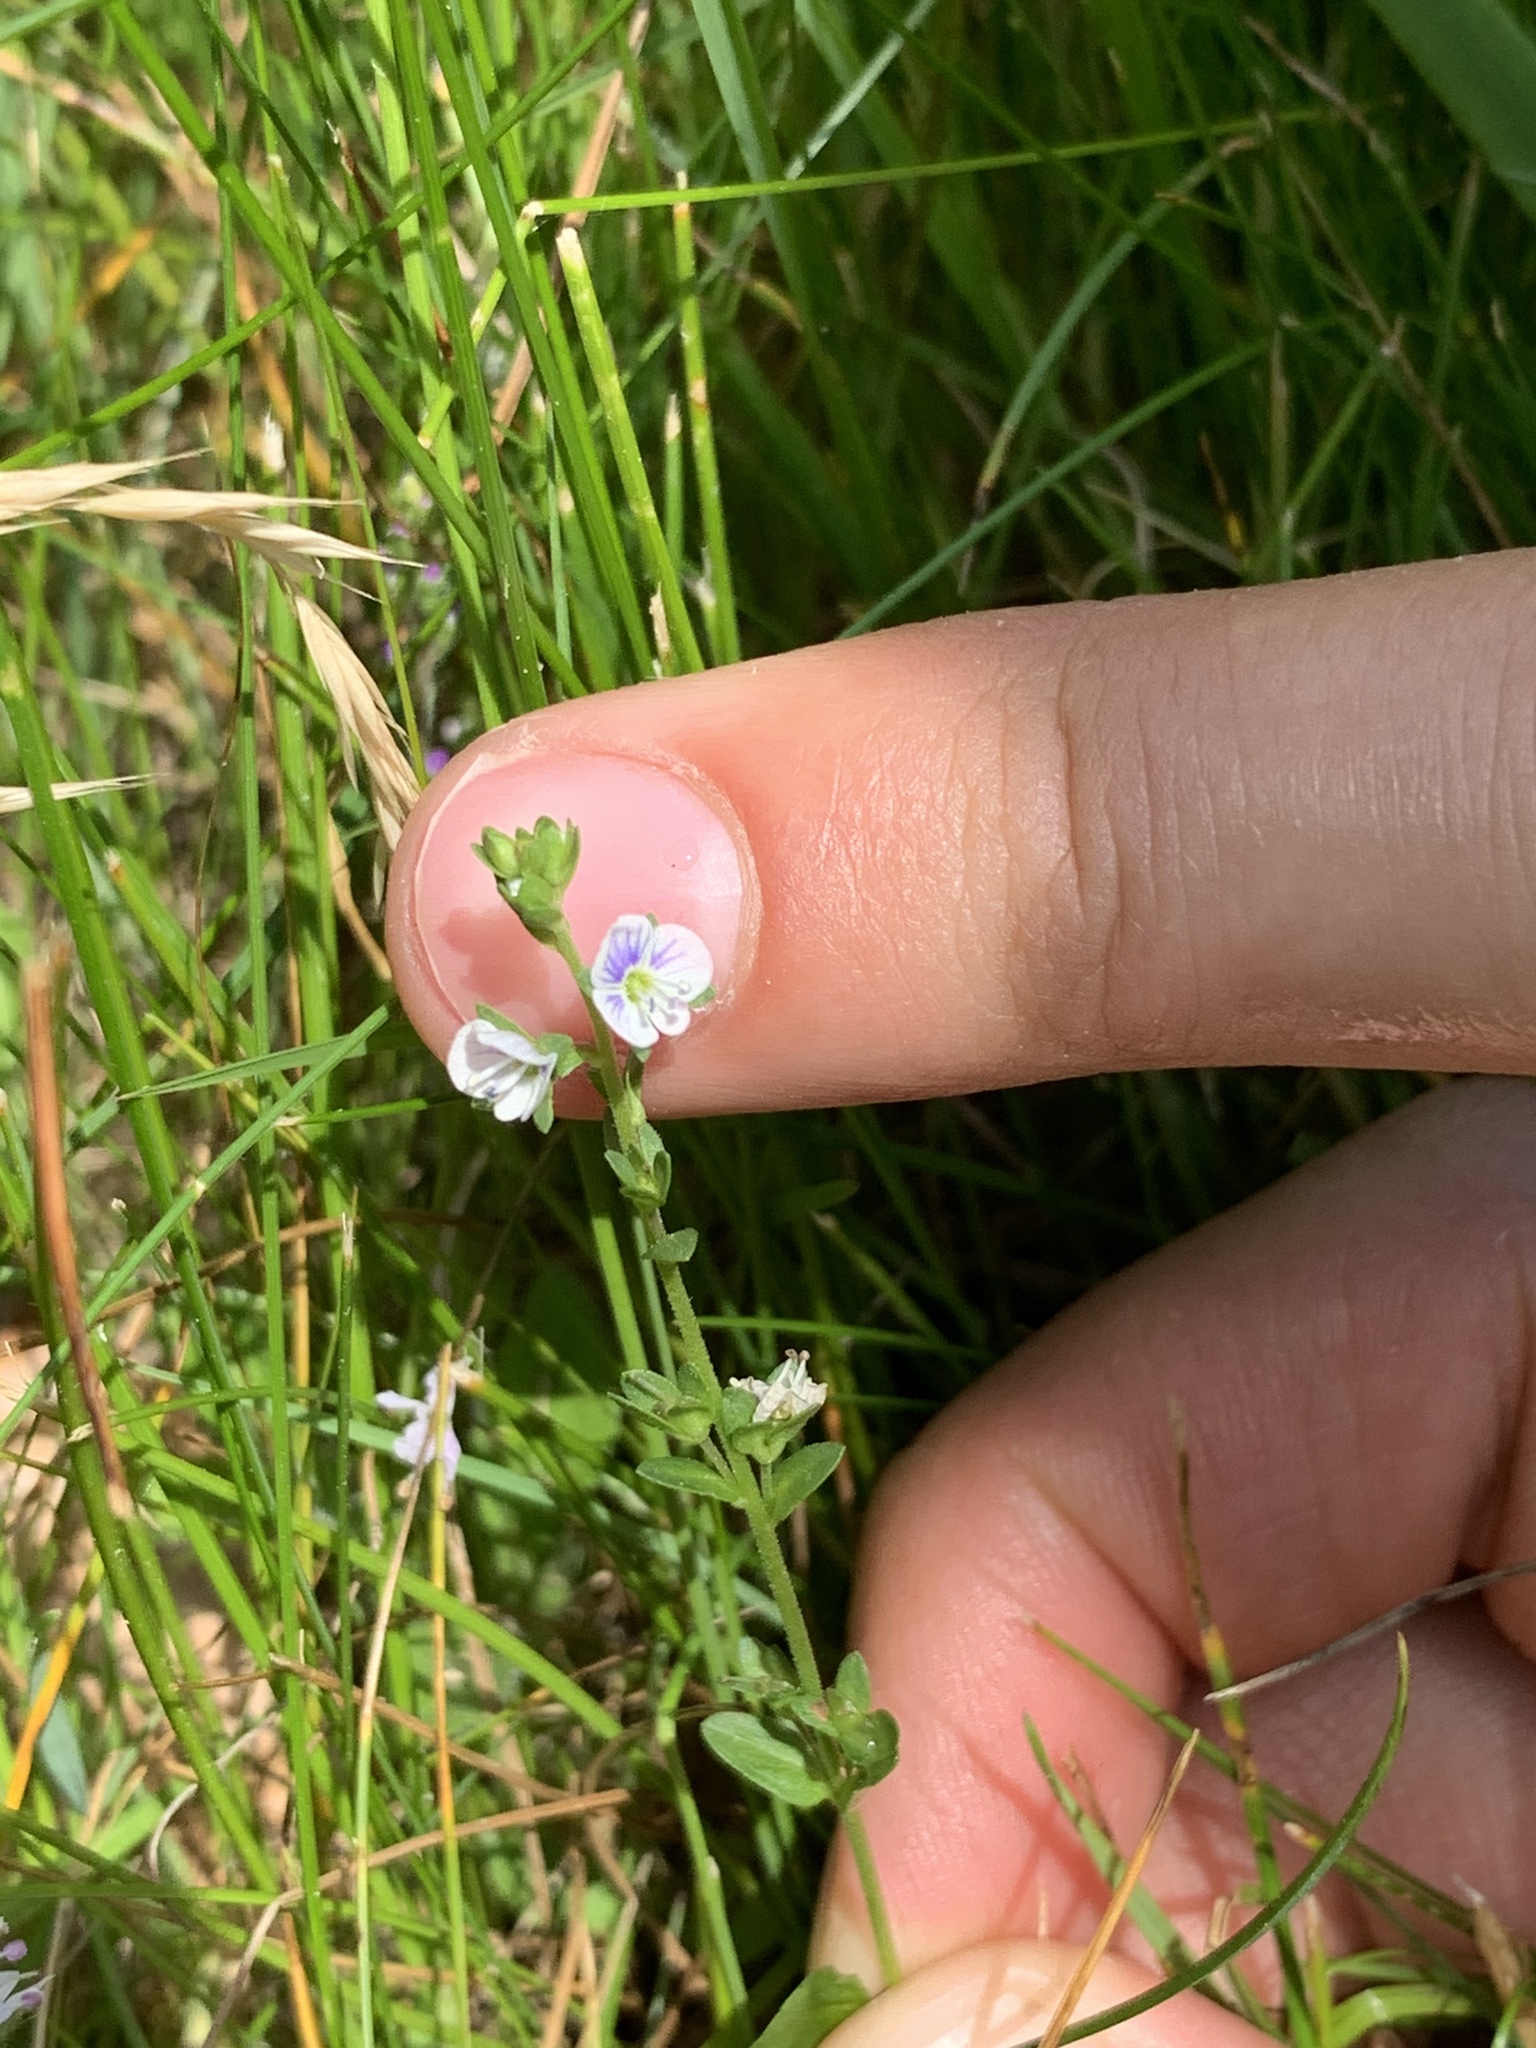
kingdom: Plantae
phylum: Tracheophyta
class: Magnoliopsida
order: Lamiales
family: Plantaginaceae
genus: Veronica
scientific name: Veronica serpyllifolia
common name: Thyme-leaved speedwell
